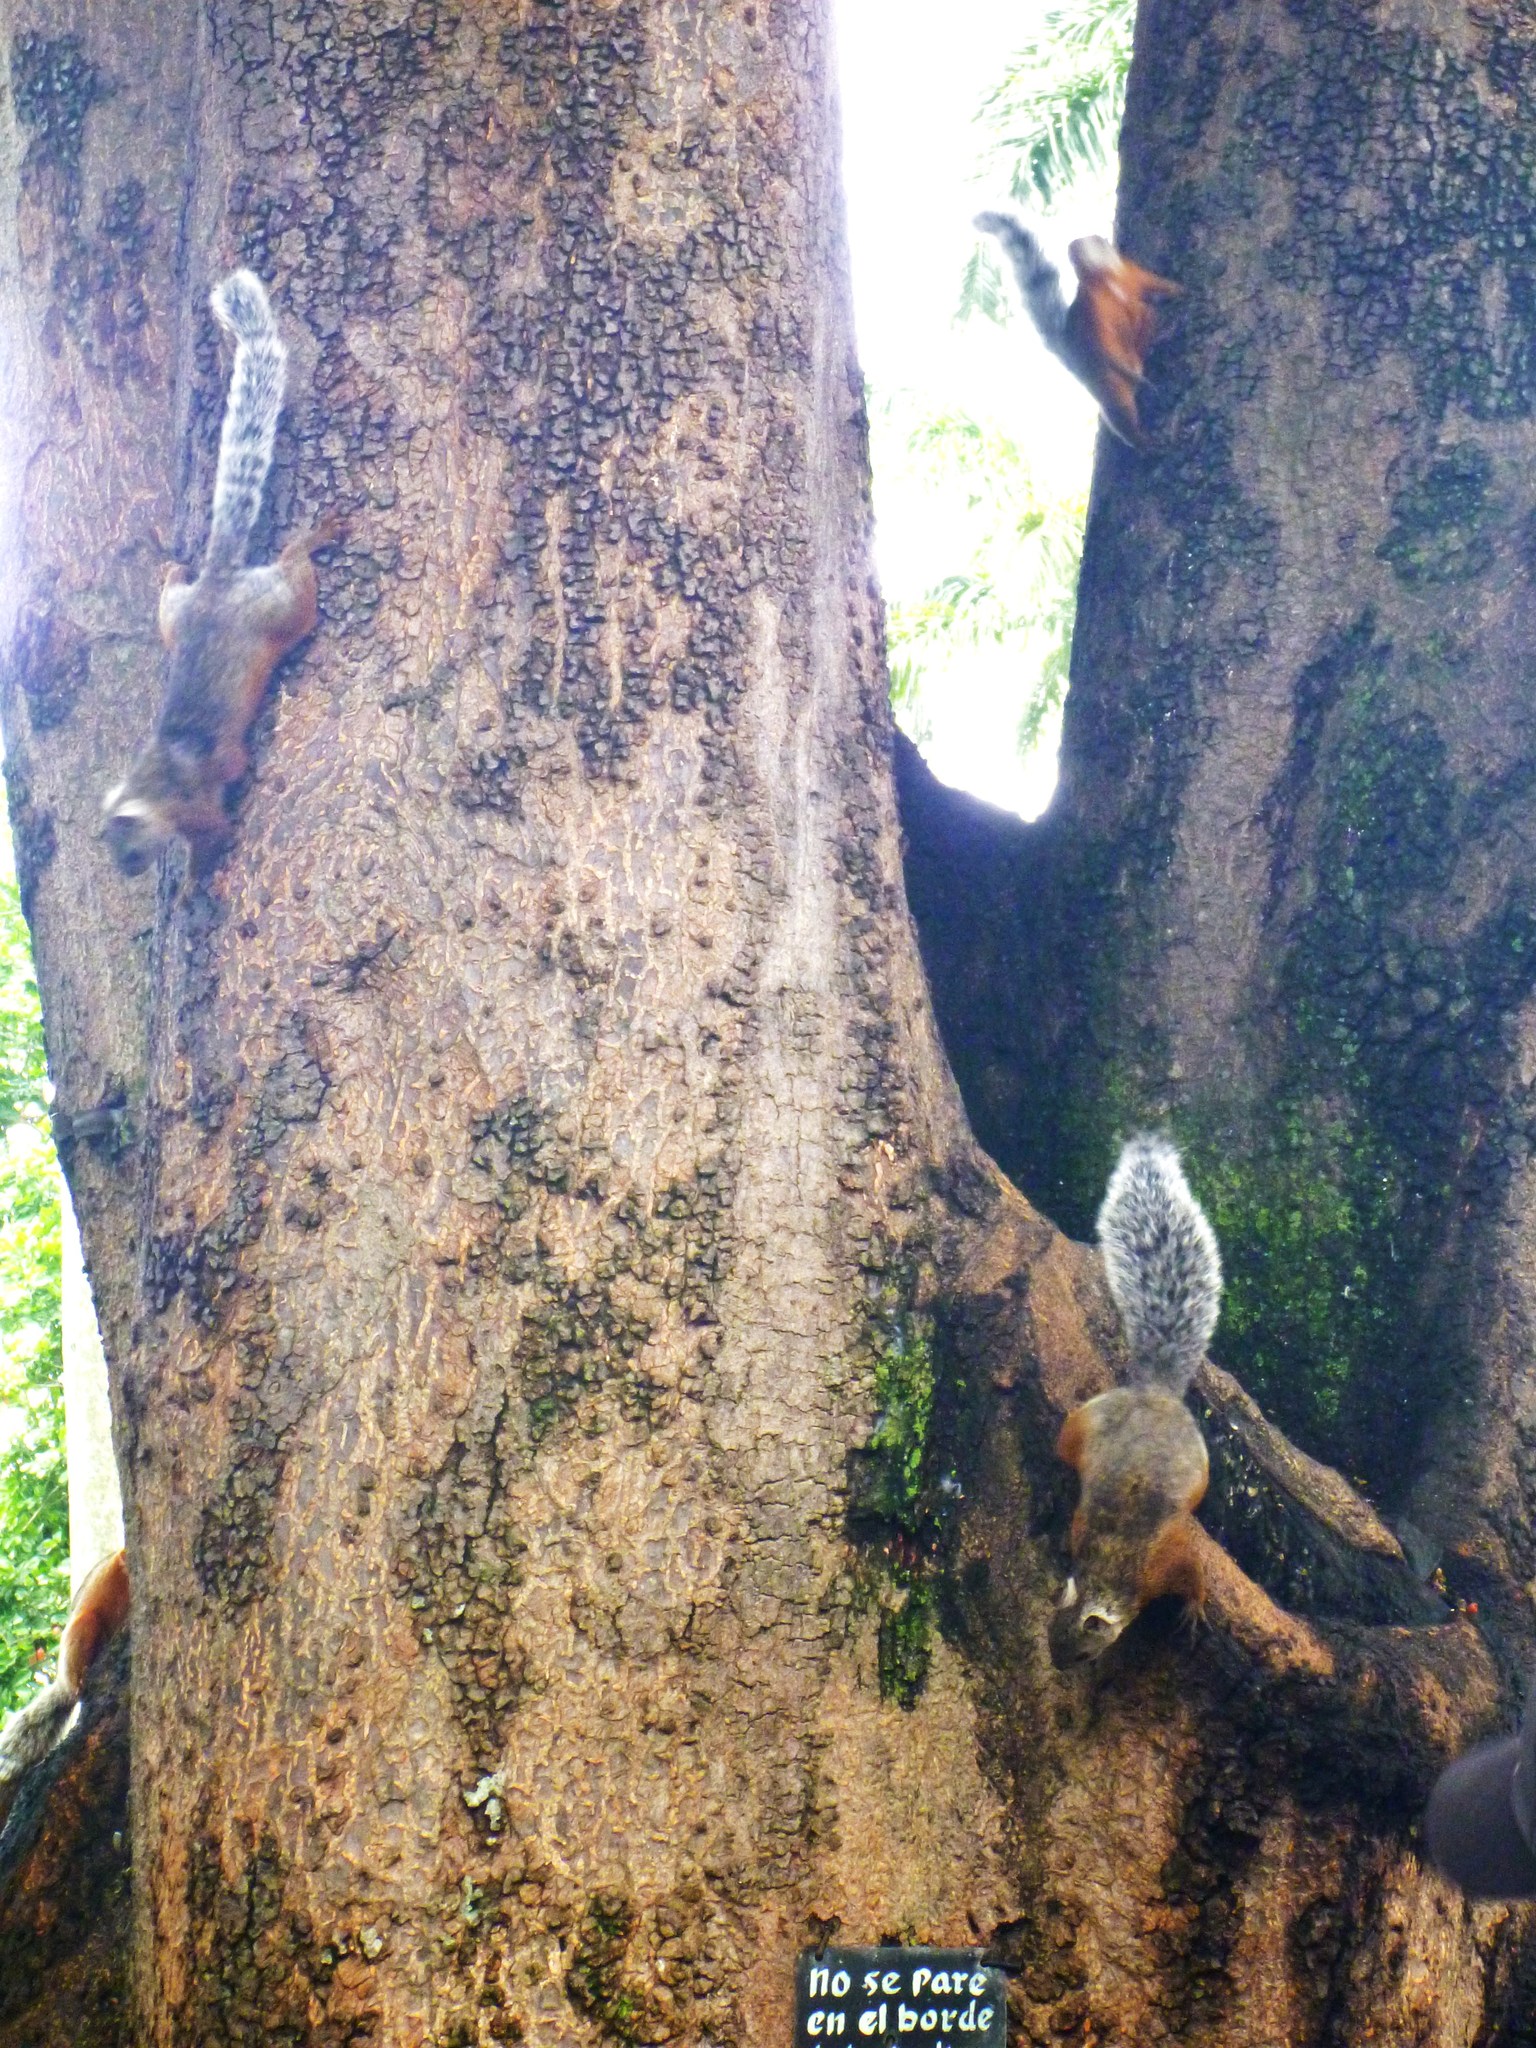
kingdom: Animalia
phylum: Chordata
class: Mammalia
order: Rodentia
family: Sciuridae
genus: Sciurus
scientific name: Sciurus variegatoides
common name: Variegated squirrel
